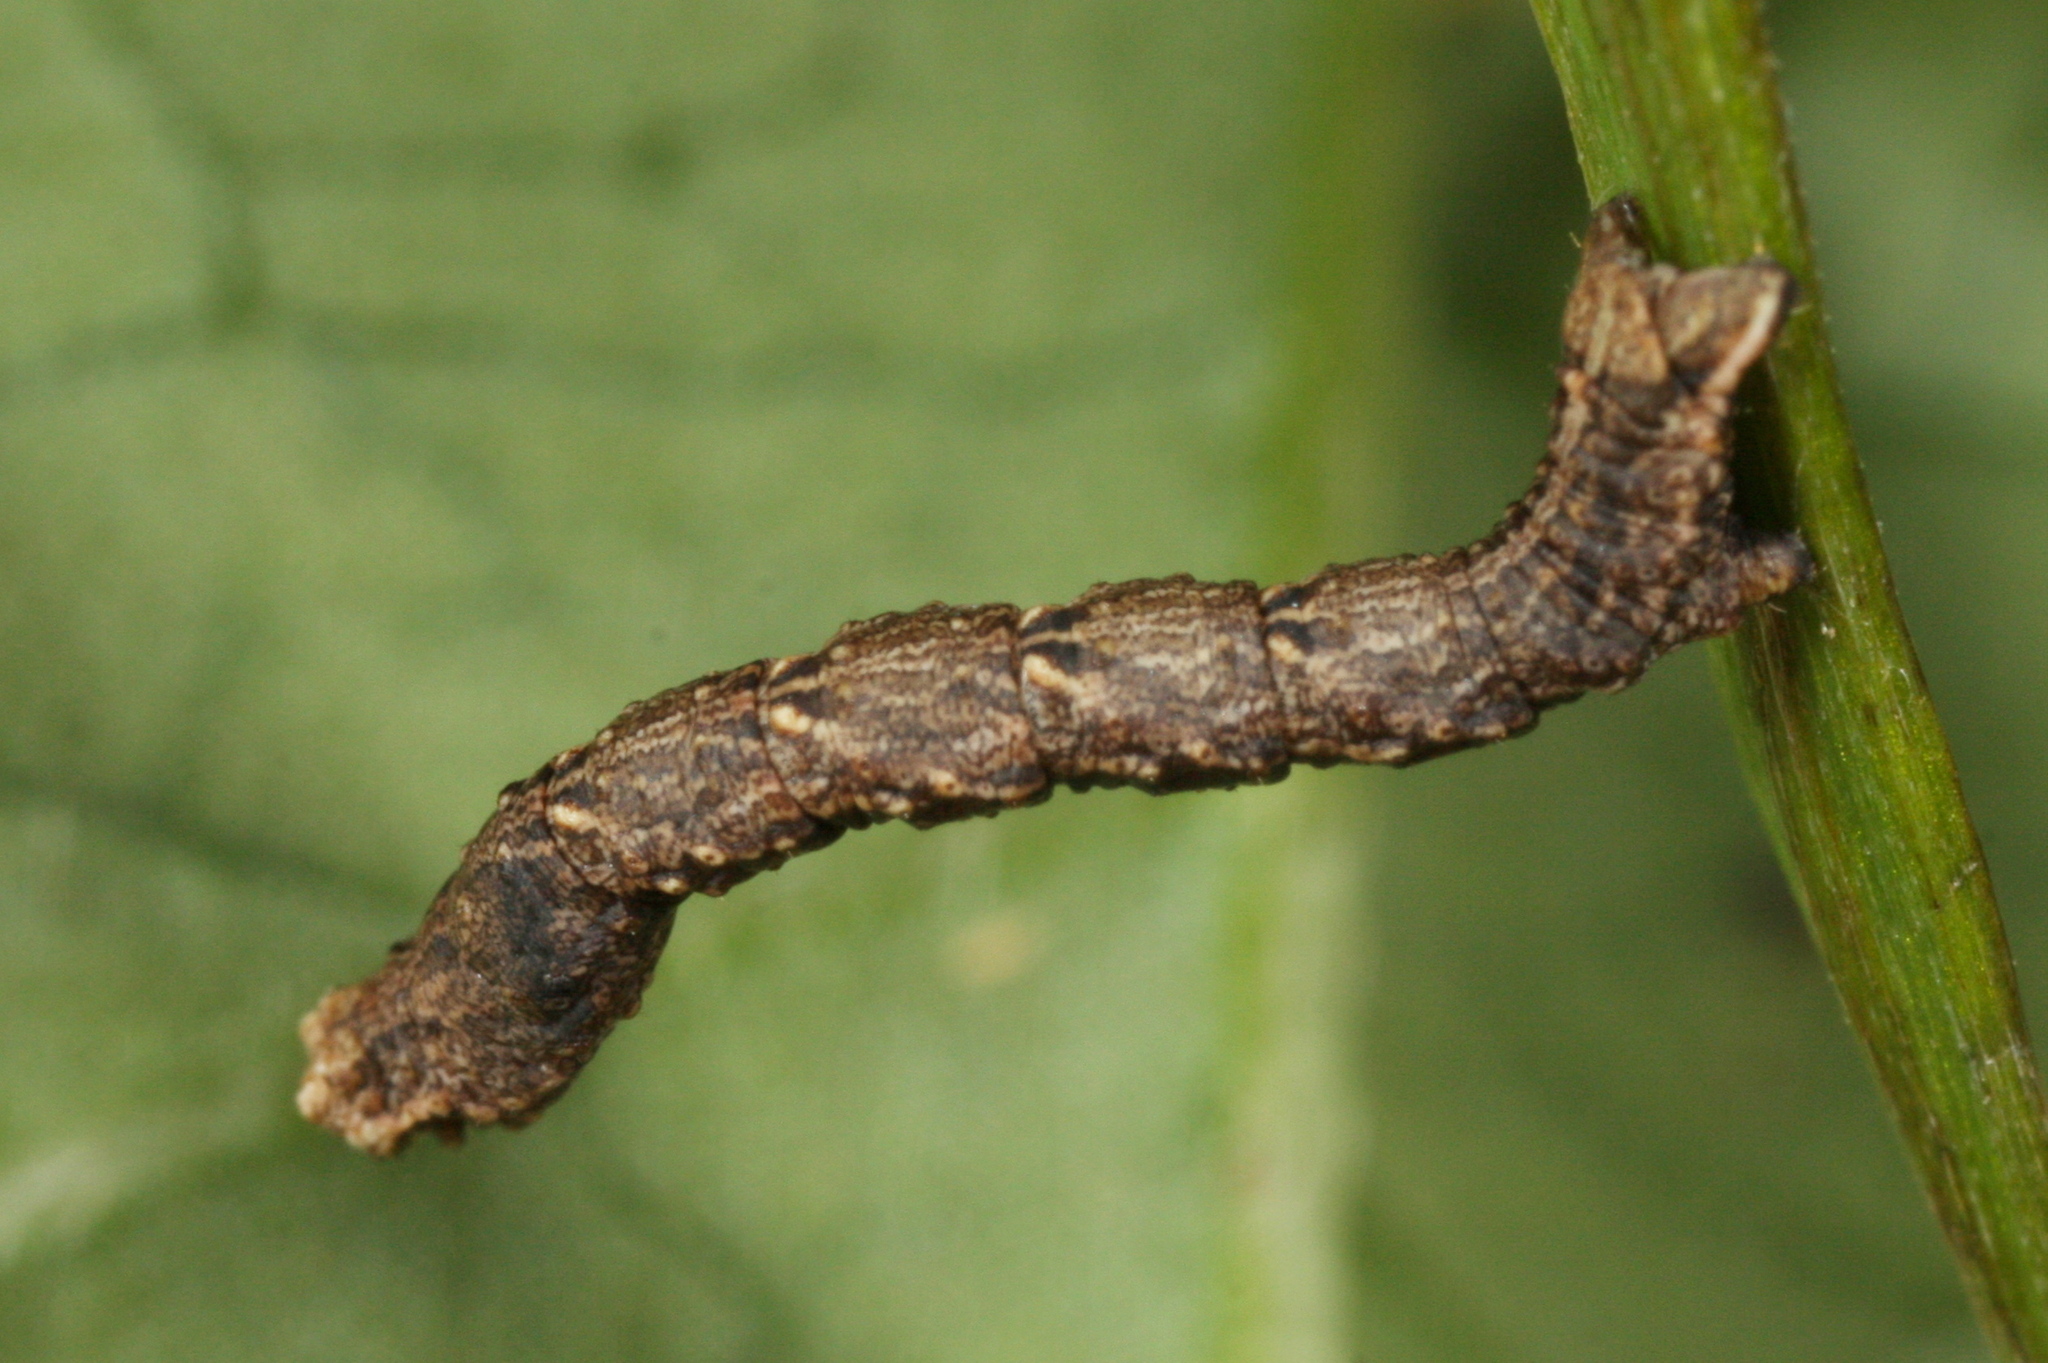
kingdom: Animalia
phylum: Arthropoda
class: Insecta
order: Lepidoptera
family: Geometridae
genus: Timandra
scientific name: Timandra comae
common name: Blood-vein
